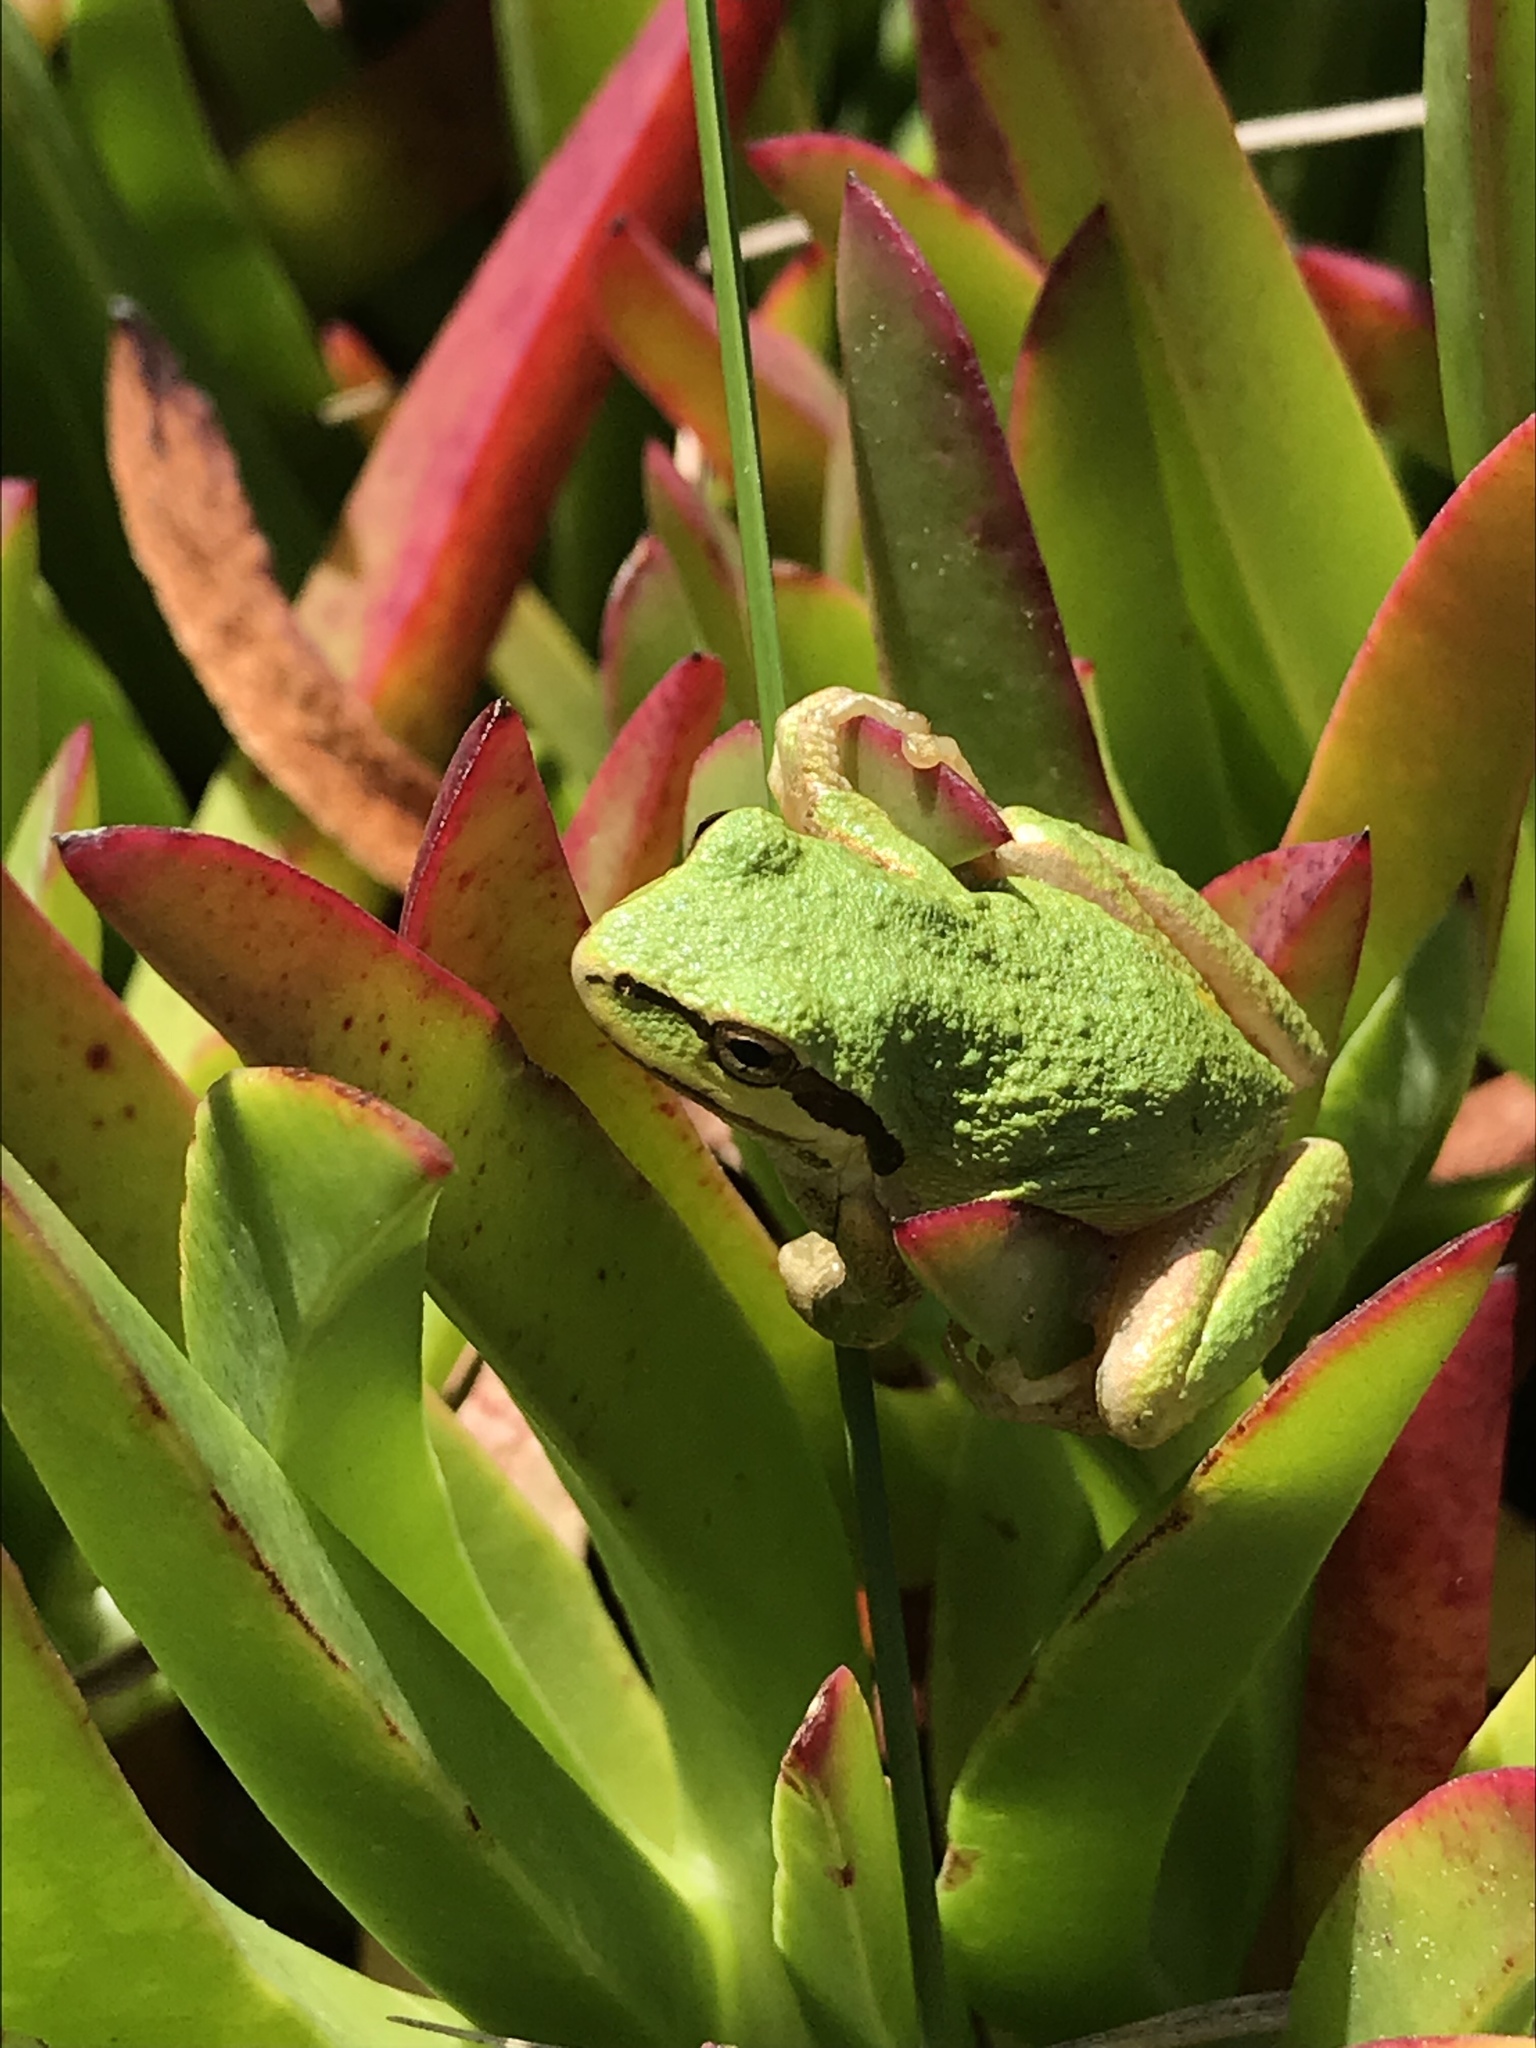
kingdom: Animalia
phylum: Chordata
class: Amphibia
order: Anura
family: Hylidae
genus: Pseudacris
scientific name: Pseudacris regilla
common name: Pacific chorus frog
